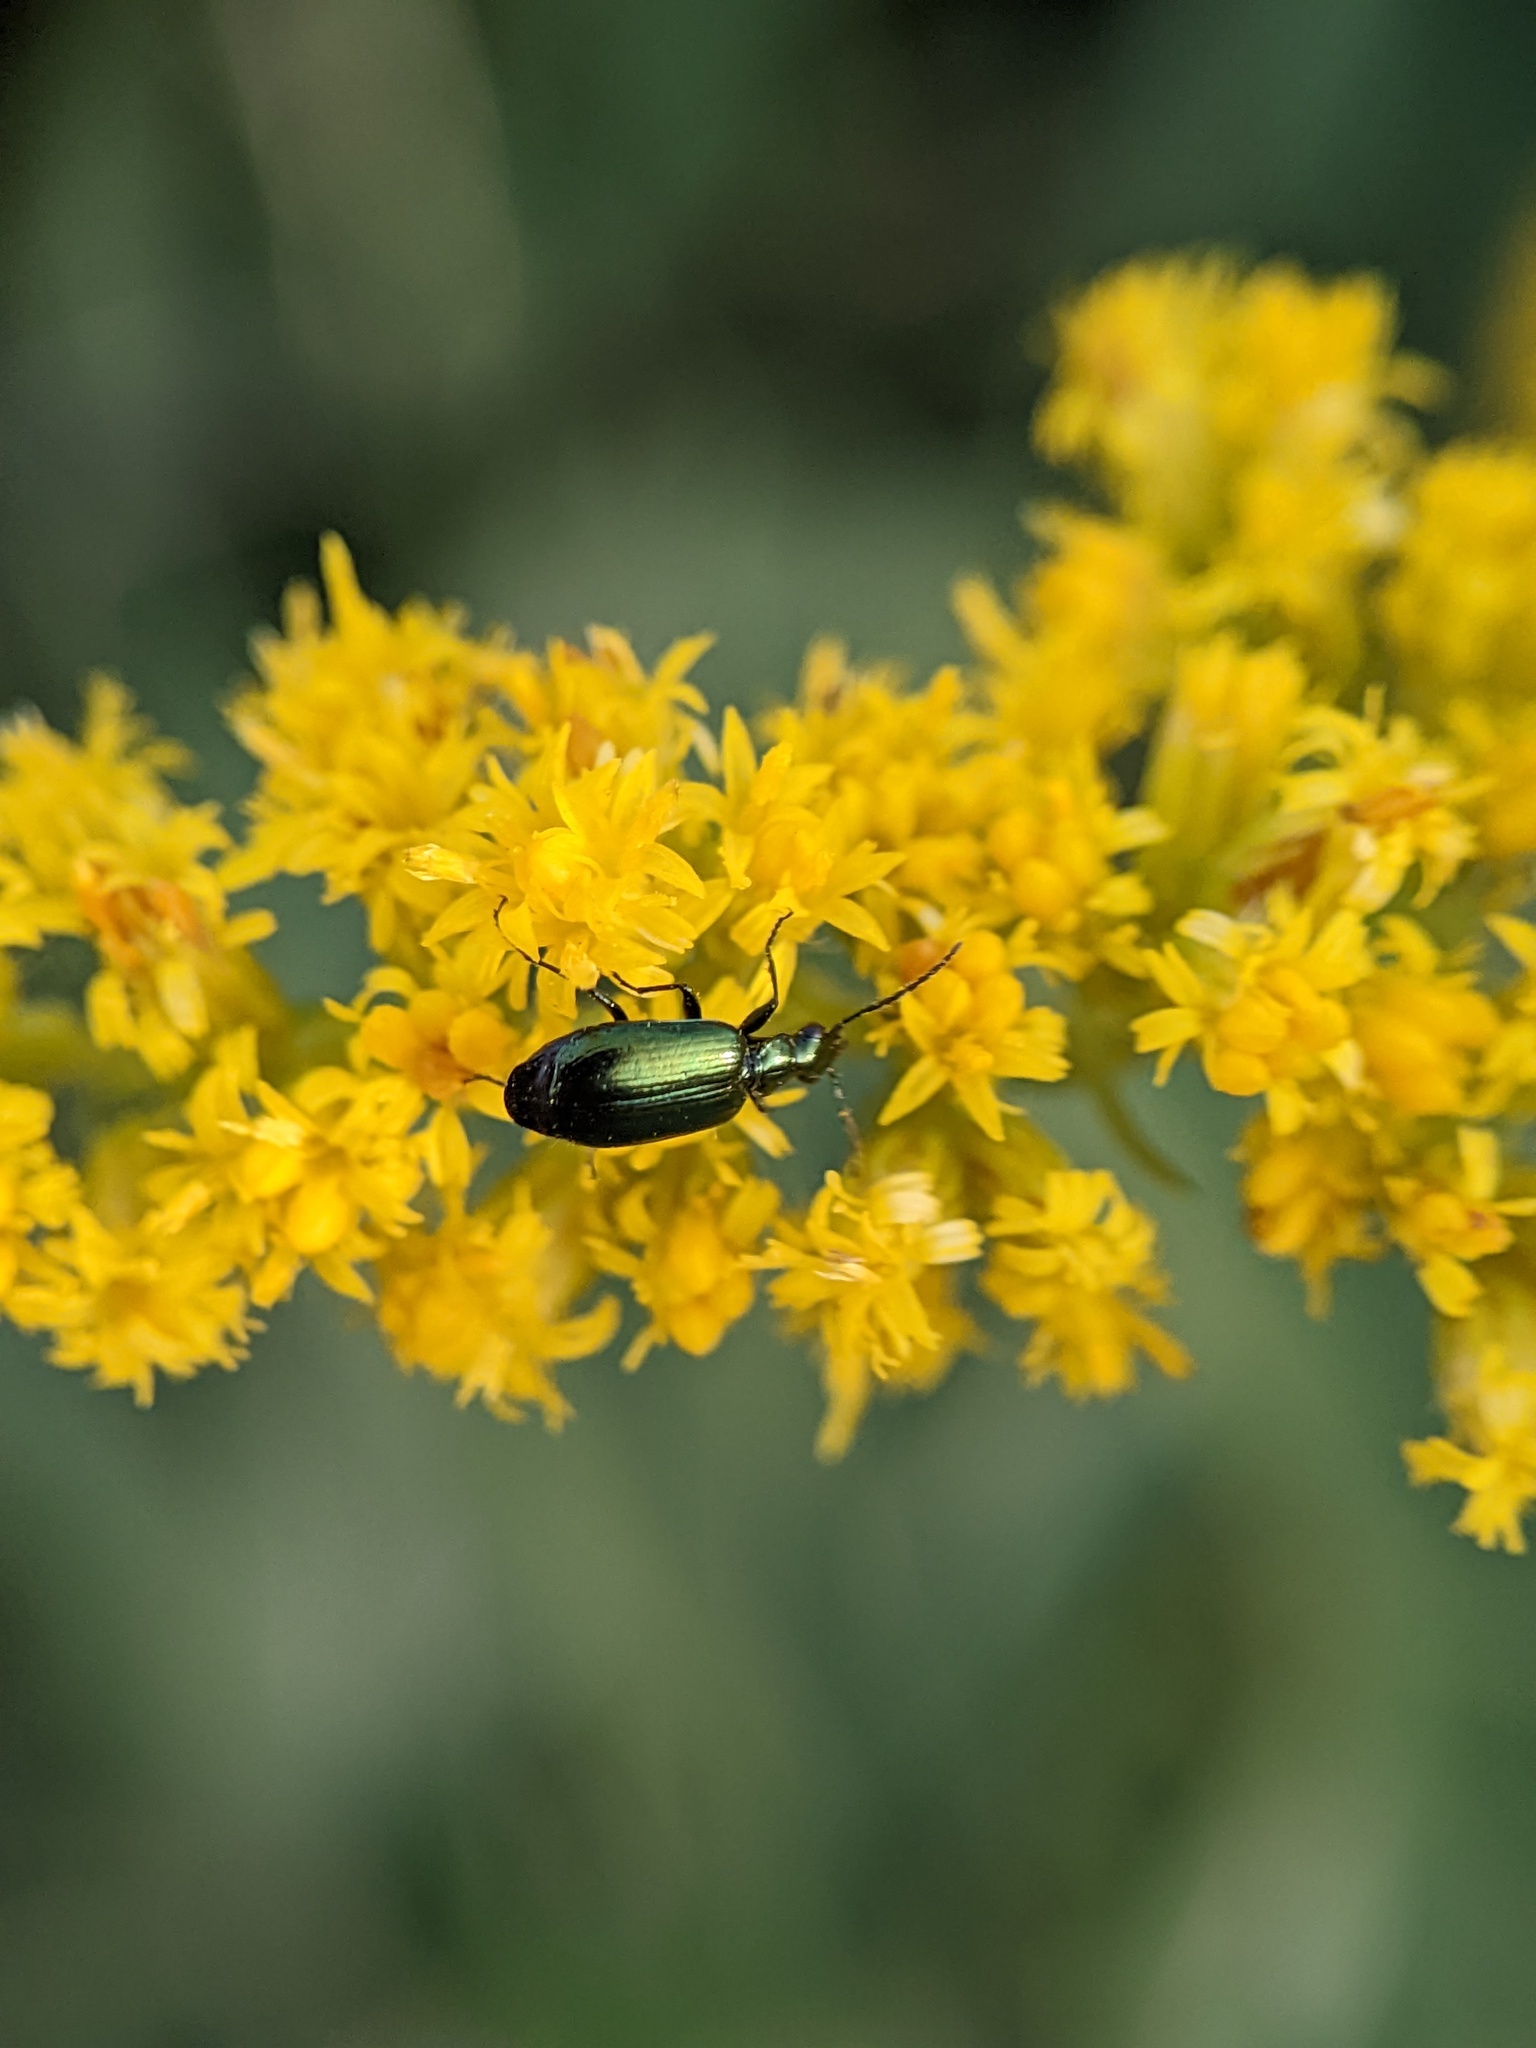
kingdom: Animalia
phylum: Arthropoda
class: Insecta
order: Coleoptera
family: Carabidae
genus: Lebia
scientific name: Lebia viridis
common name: Flower lebia beetle
